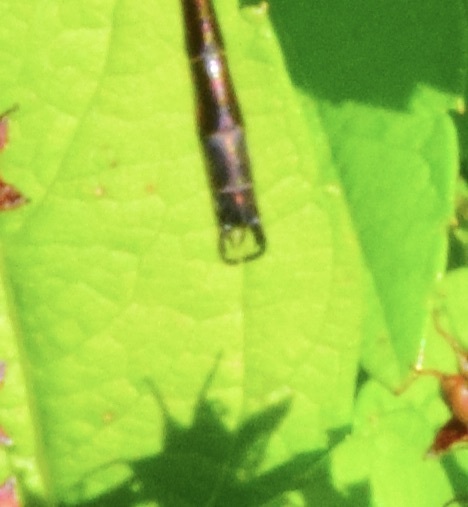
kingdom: Animalia
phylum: Arthropoda
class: Insecta
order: Odonata
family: Lestidae
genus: Lestes
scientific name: Lestes rectangularis
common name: Slender spreadwing
